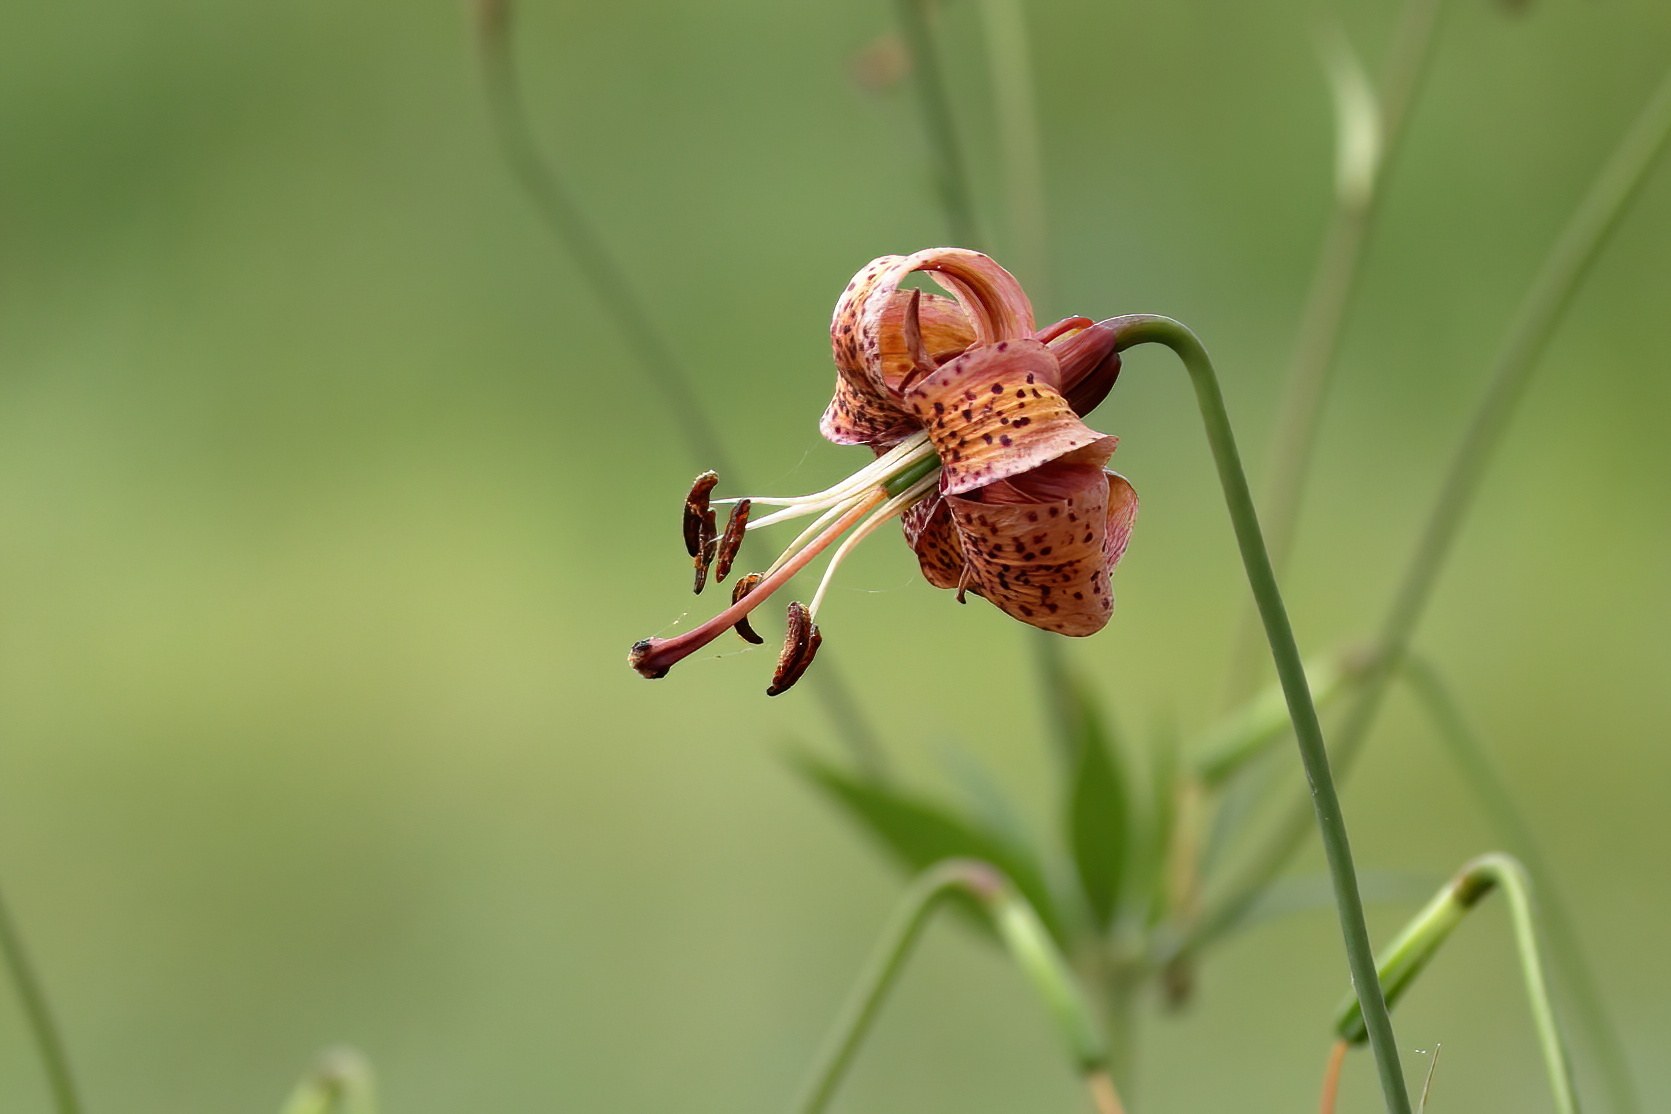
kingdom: Plantae
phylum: Tracheophyta
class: Liliopsida
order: Liliales
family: Liliaceae
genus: Lilium
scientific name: Lilium michiganense
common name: Michigan lily
